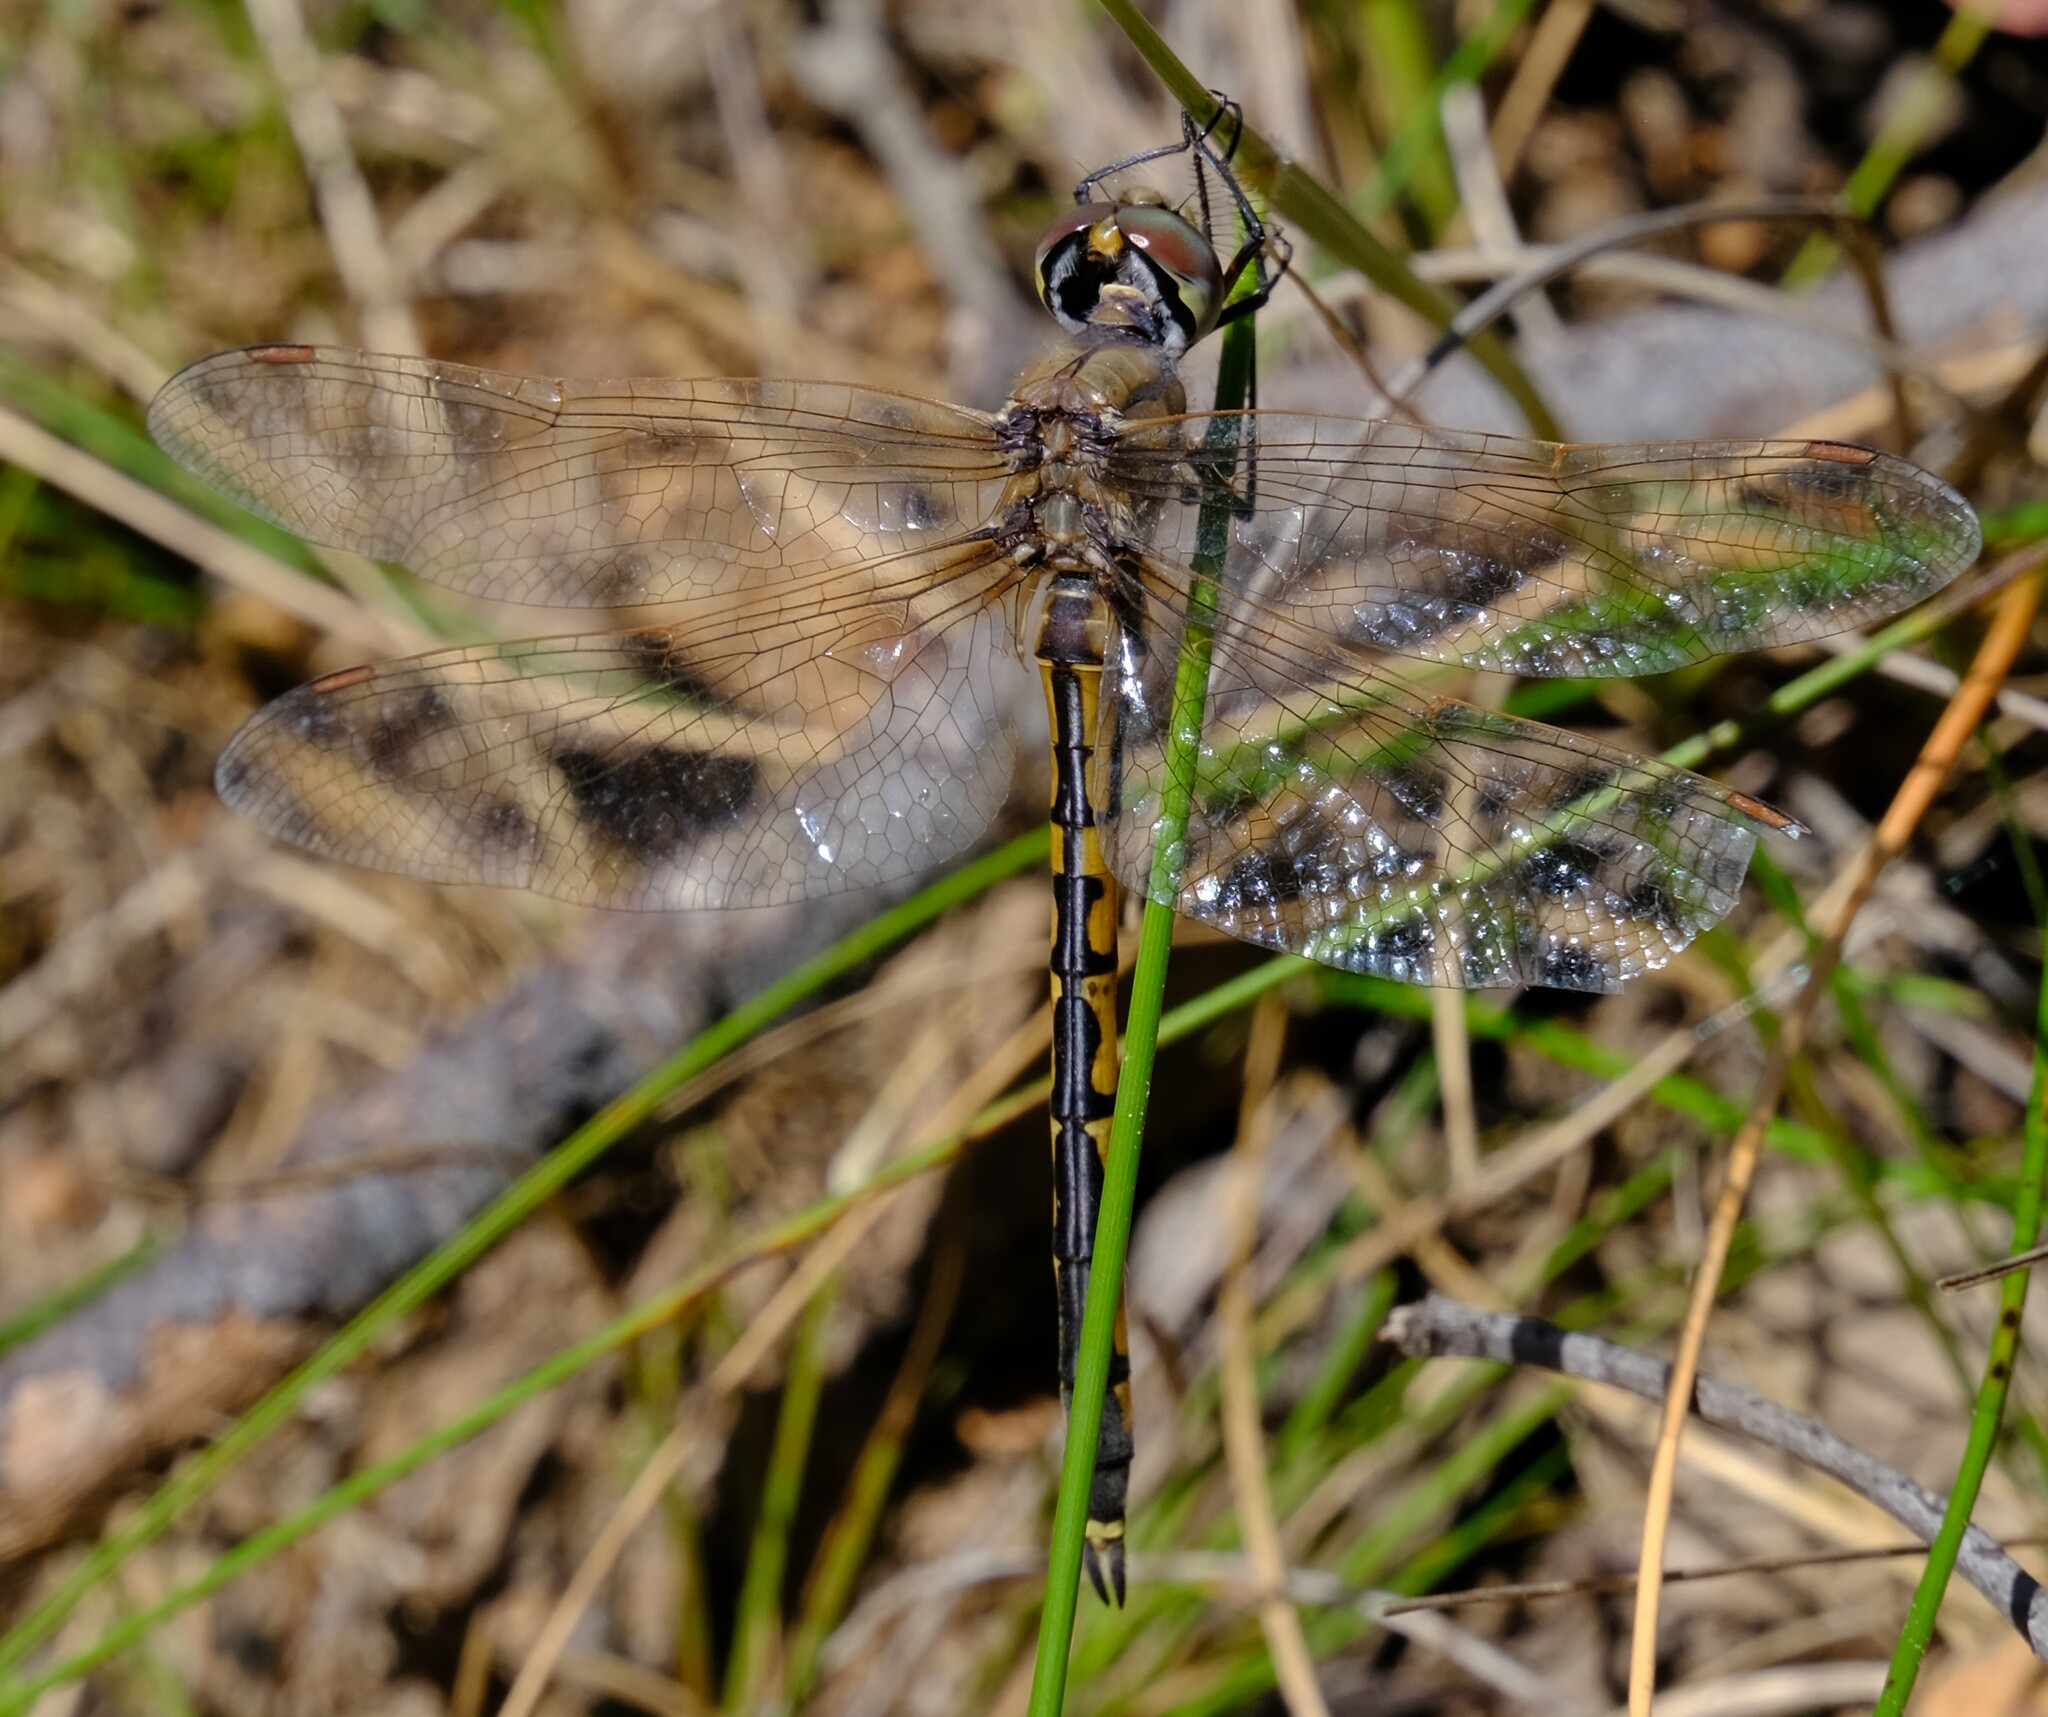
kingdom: Animalia
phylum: Arthropoda
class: Insecta
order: Odonata
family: Corduliidae
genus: Hemicordulia
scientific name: Hemicordulia tau
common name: Tau emerald
